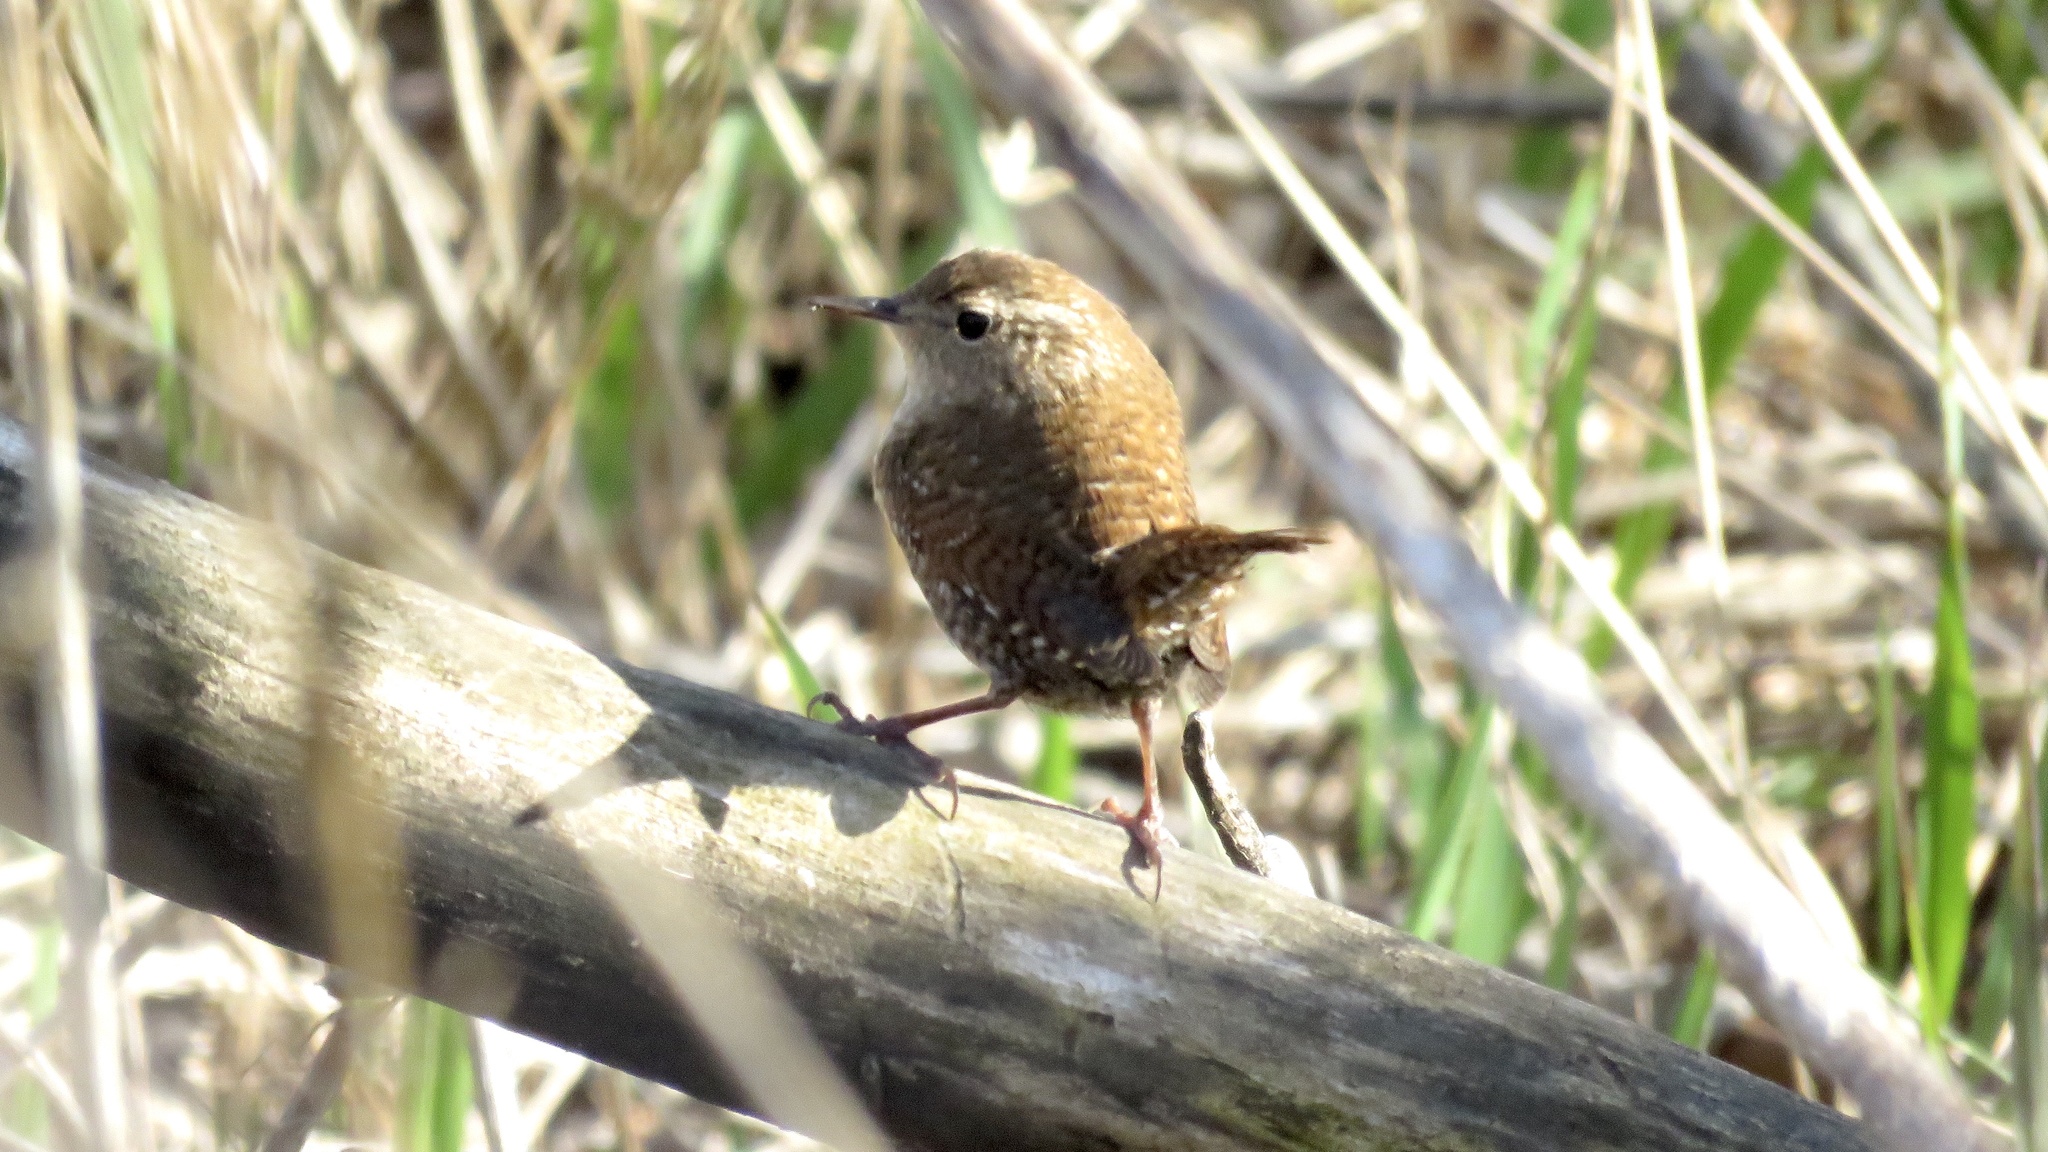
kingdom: Animalia
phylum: Chordata
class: Aves
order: Passeriformes
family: Troglodytidae
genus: Troglodytes
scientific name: Troglodytes hiemalis
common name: Winter wren
